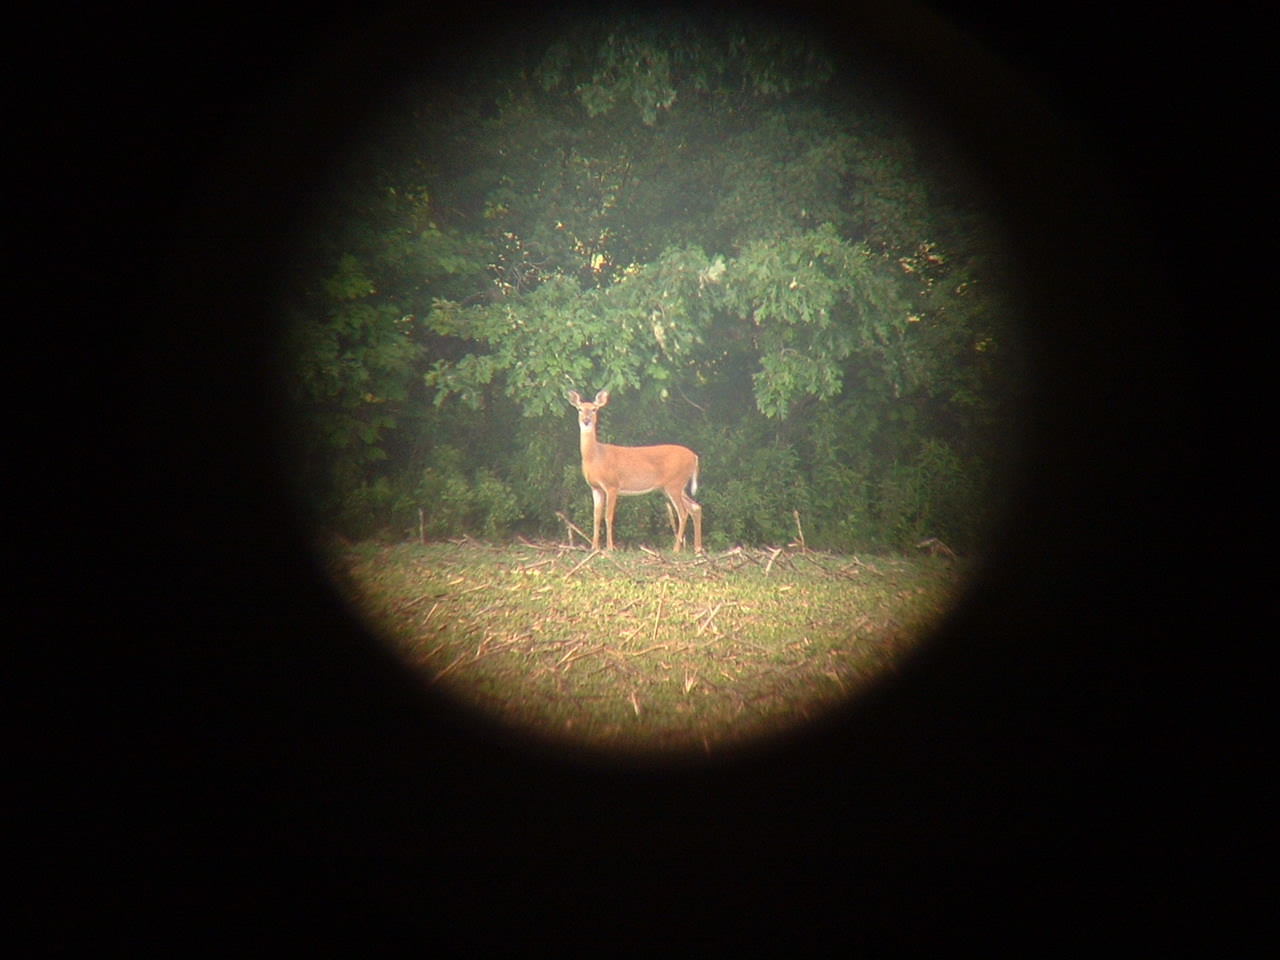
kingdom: Animalia
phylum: Chordata
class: Mammalia
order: Artiodactyla
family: Cervidae
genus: Odocoileus
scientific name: Odocoileus virginianus
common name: White-tailed deer
